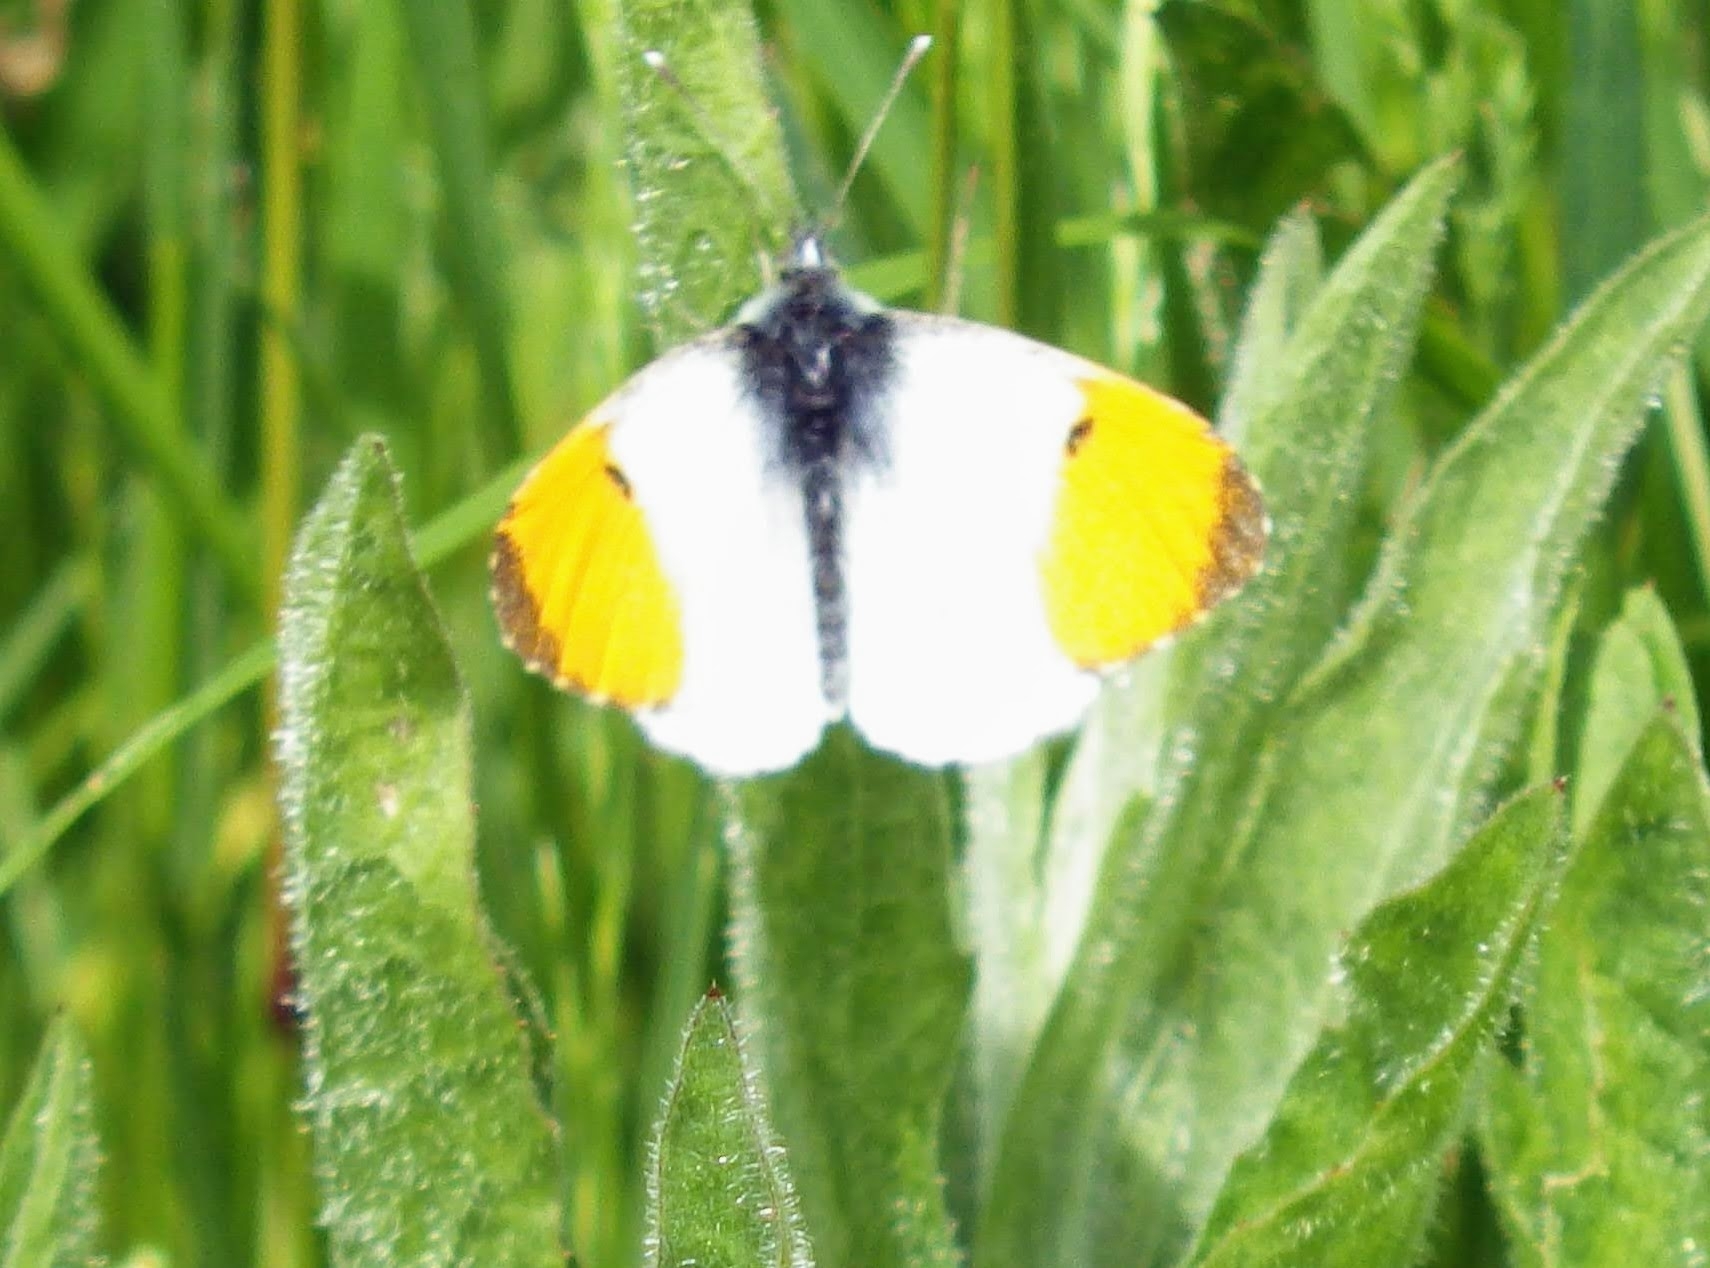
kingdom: Animalia
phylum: Arthropoda
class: Insecta
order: Lepidoptera
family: Pieridae
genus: Anthocharis
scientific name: Anthocharis cardamines
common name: Orange-tip
